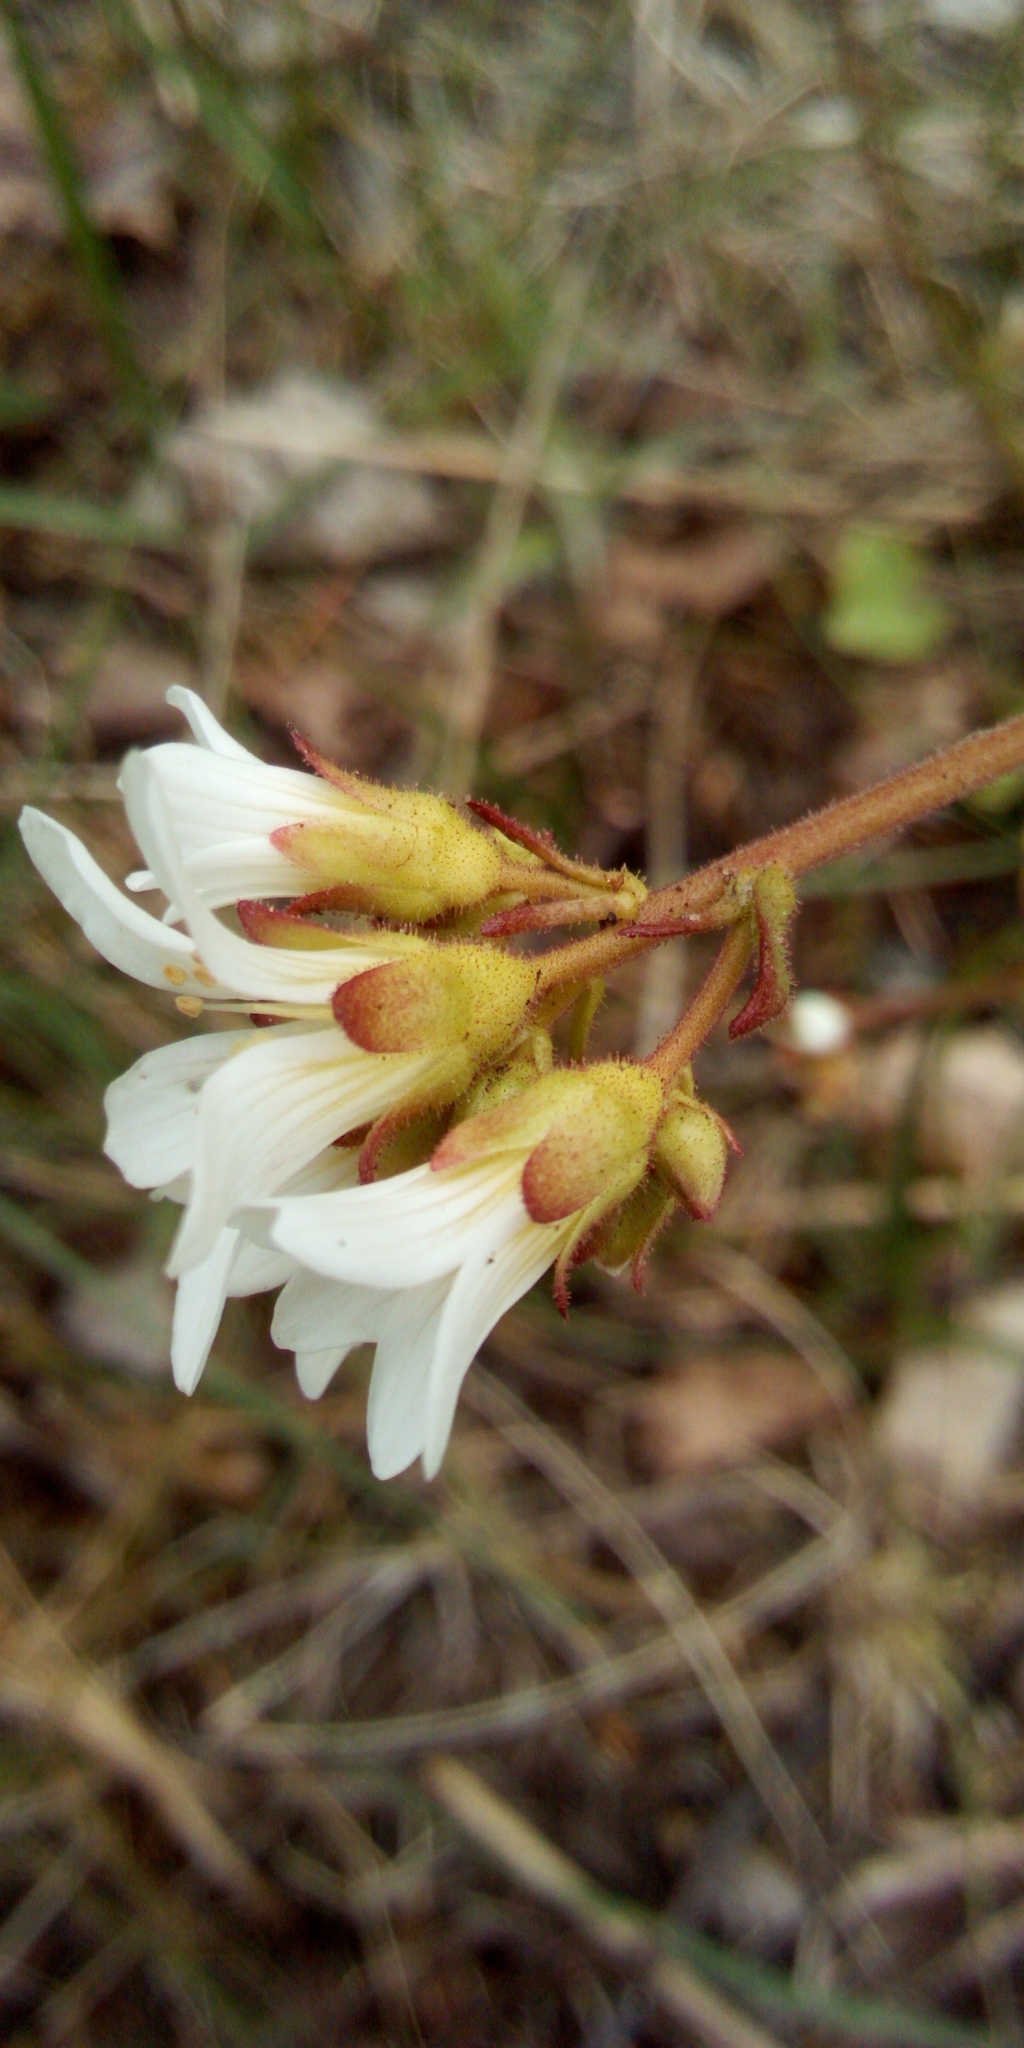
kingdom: Plantae
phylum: Tracheophyta
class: Magnoliopsida
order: Saxifragales
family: Saxifragaceae
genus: Saxifraga
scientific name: Saxifraga granulata
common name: Meadow saxifrage
